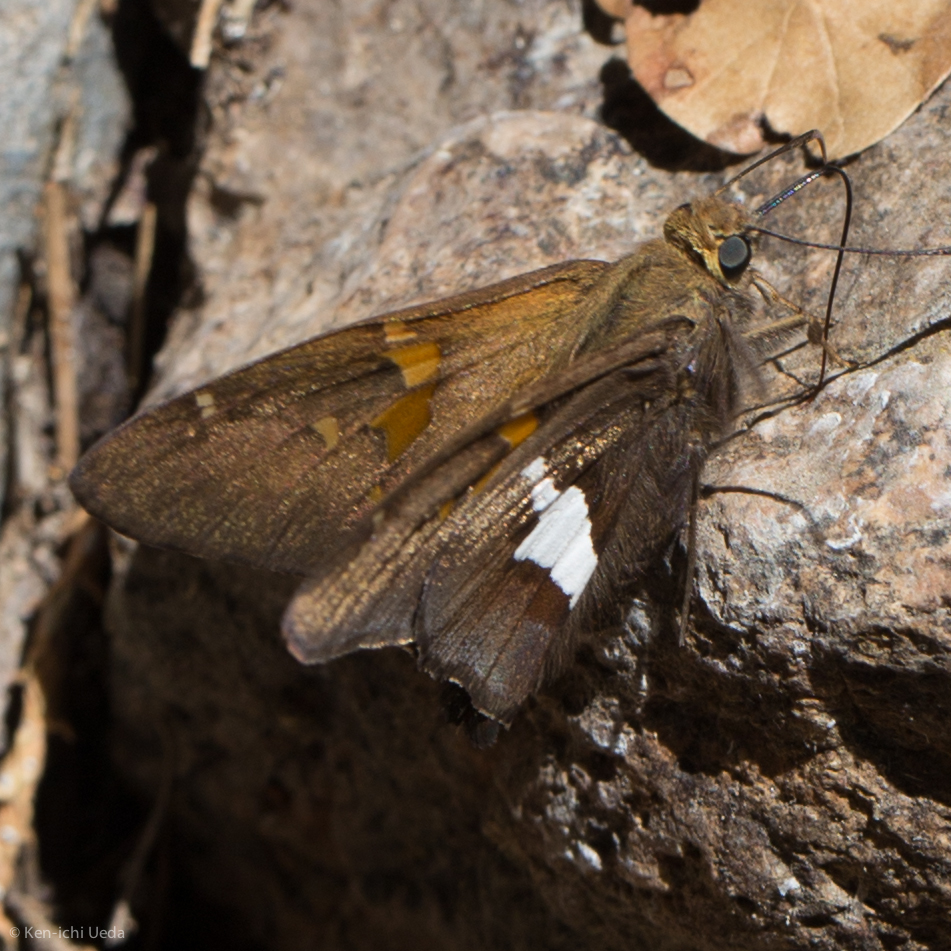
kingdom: Animalia
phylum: Arthropoda
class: Insecta
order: Lepidoptera
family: Hesperiidae
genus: Epargyreus
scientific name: Epargyreus clarus
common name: Silver-spotted skipper
